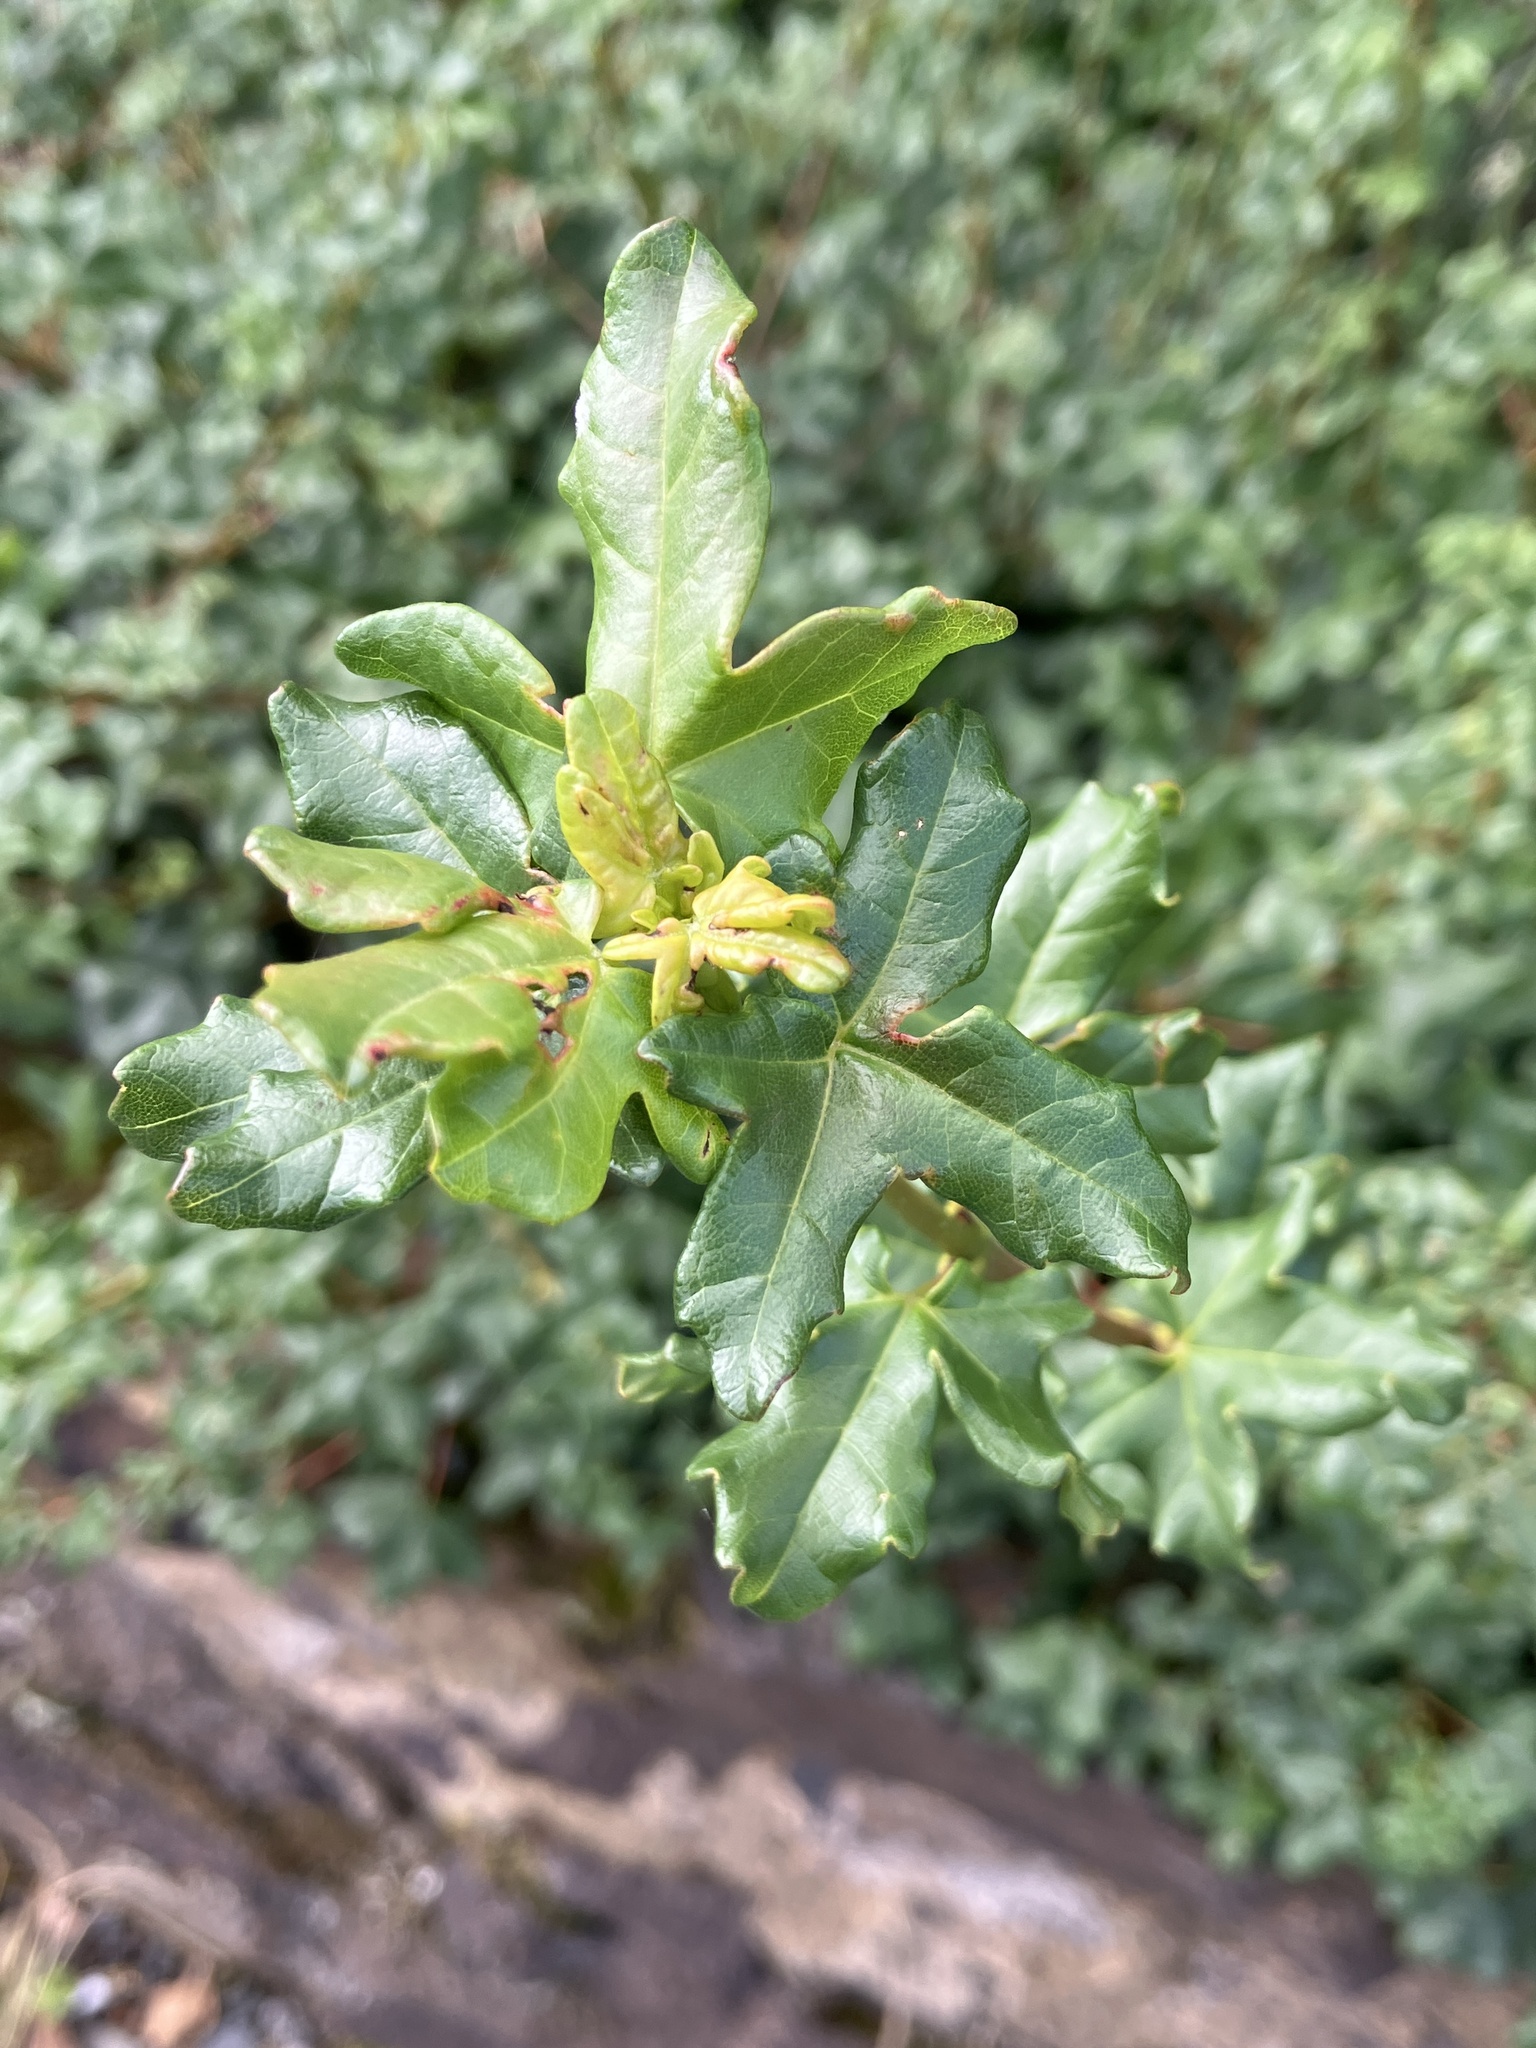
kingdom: Plantae
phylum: Tracheophyta
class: Magnoliopsida
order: Sapindales
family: Sapindaceae
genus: Acer
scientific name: Acer campestre
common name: Field maple
